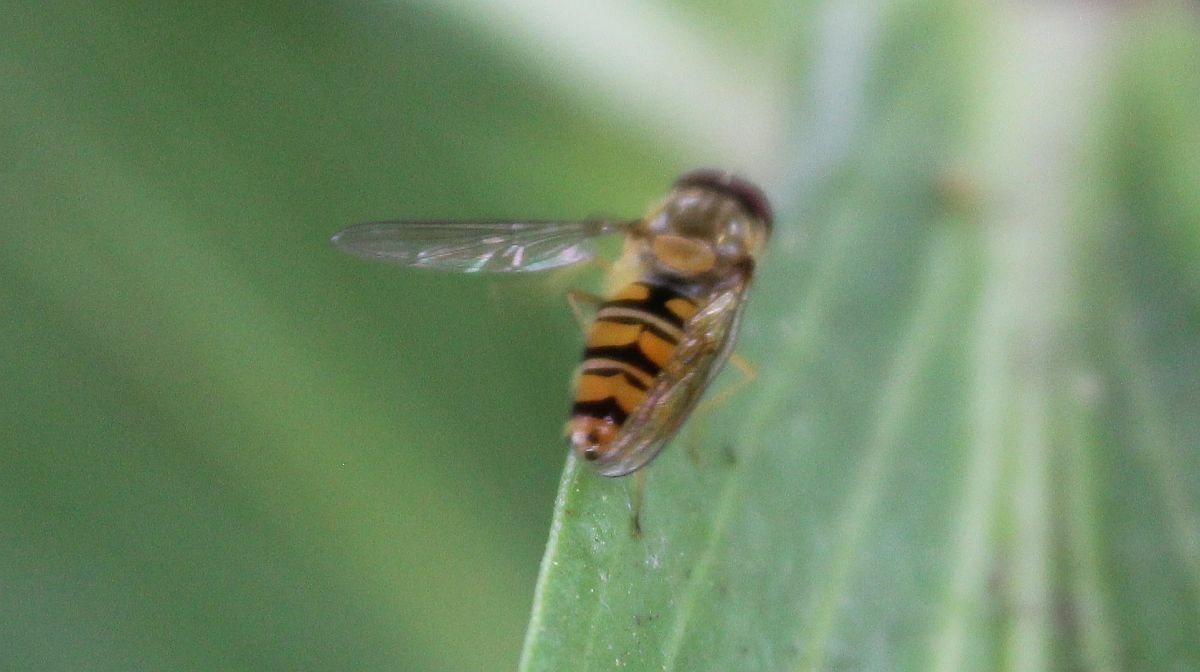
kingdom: Animalia
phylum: Arthropoda
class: Insecta
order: Diptera
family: Syrphidae
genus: Episyrphus
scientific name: Episyrphus balteatus
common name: Marmalade hoverfly
